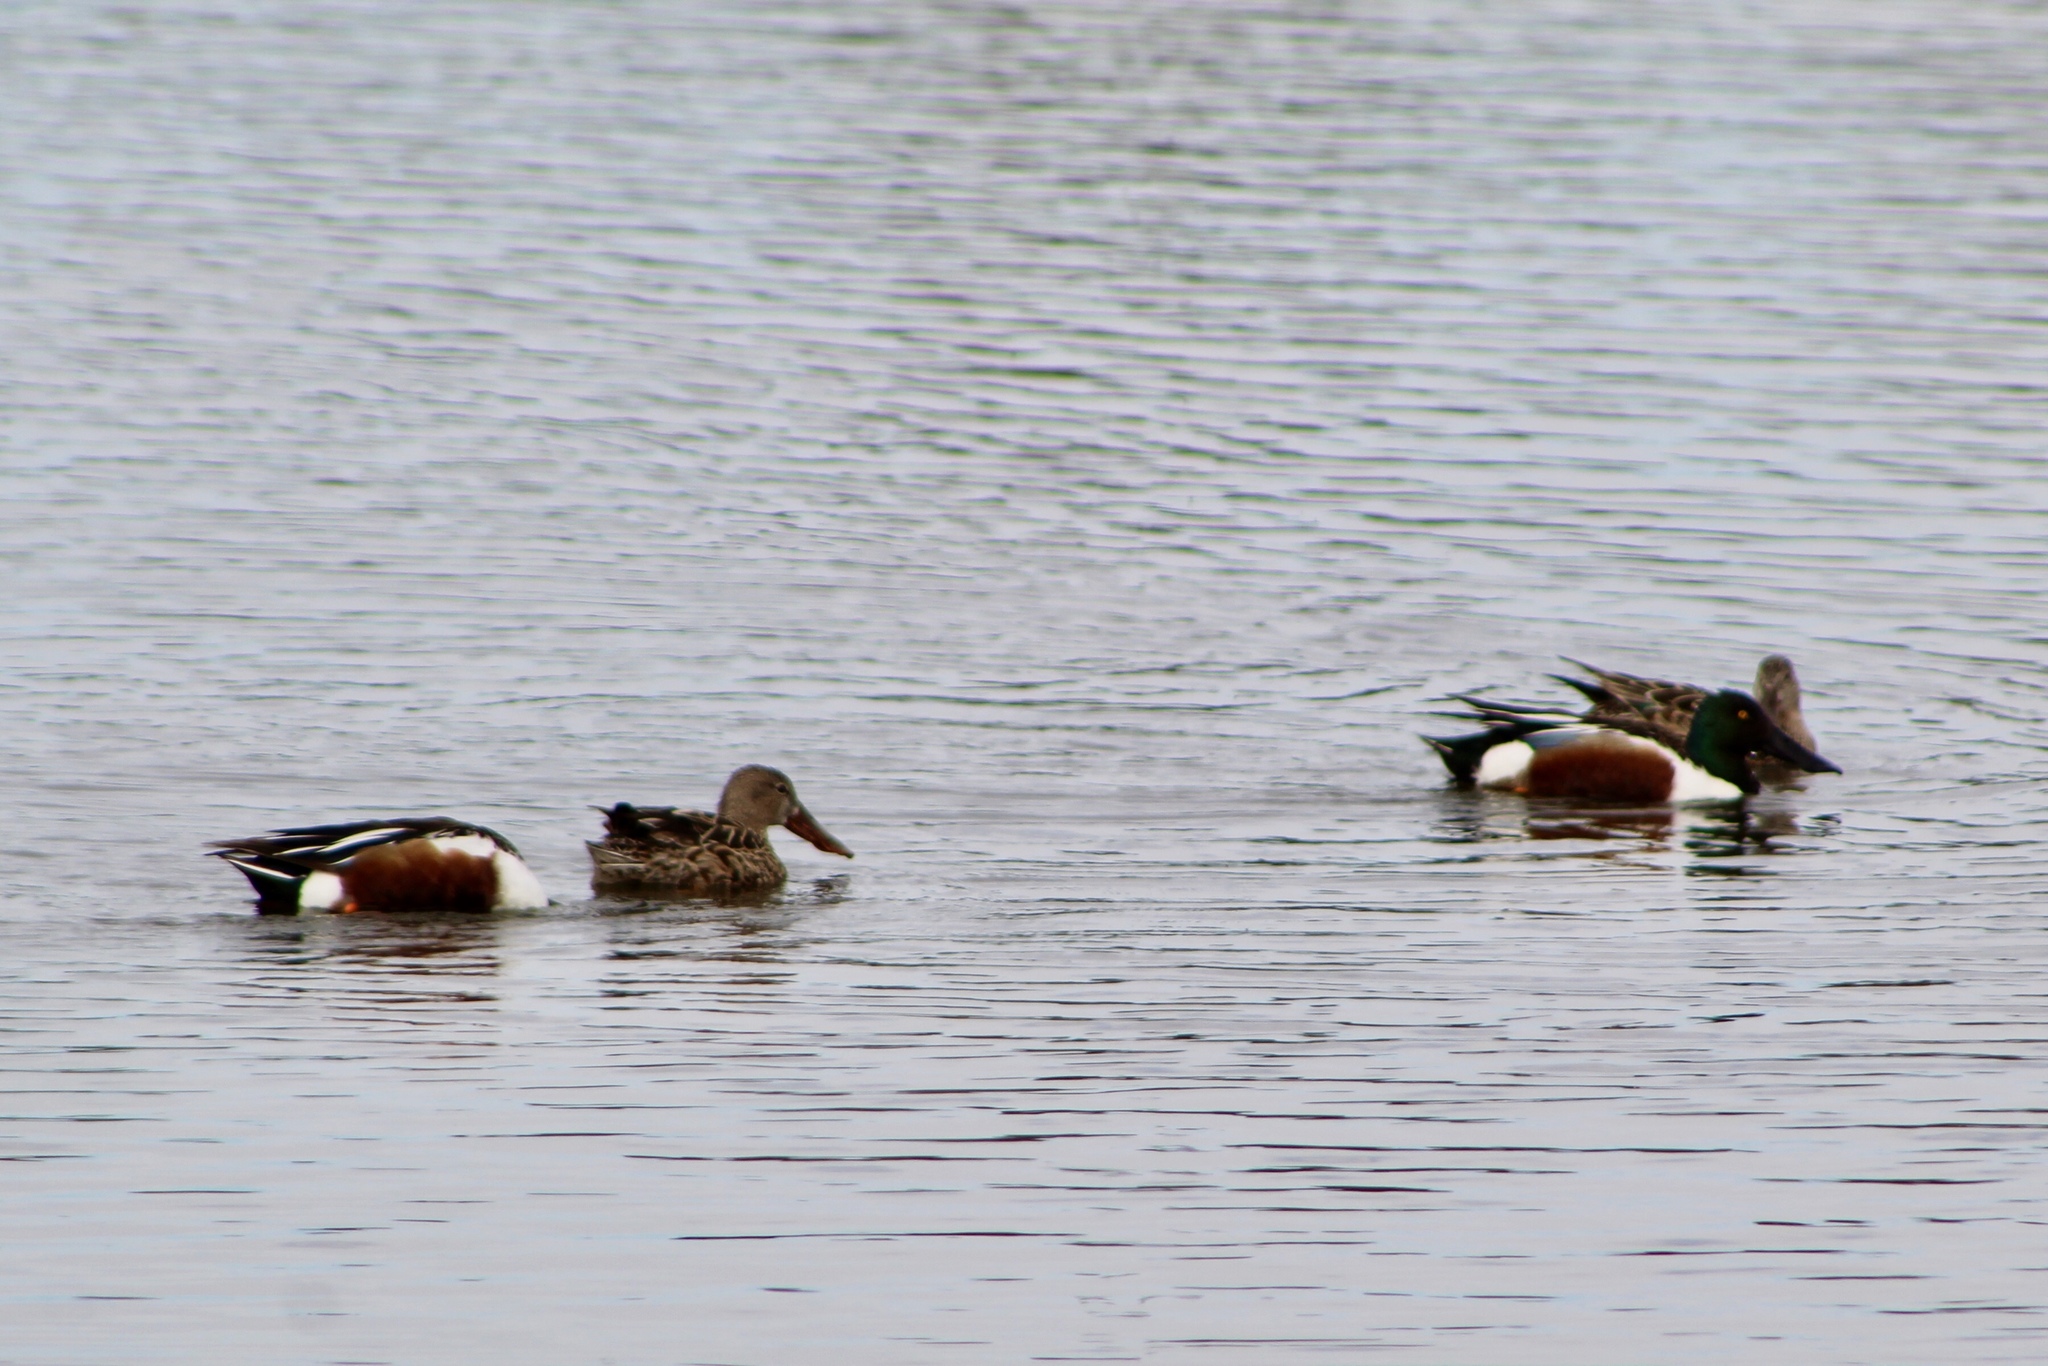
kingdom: Animalia
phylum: Chordata
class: Aves
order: Anseriformes
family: Anatidae
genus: Spatula
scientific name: Spatula clypeata
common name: Northern shoveler
